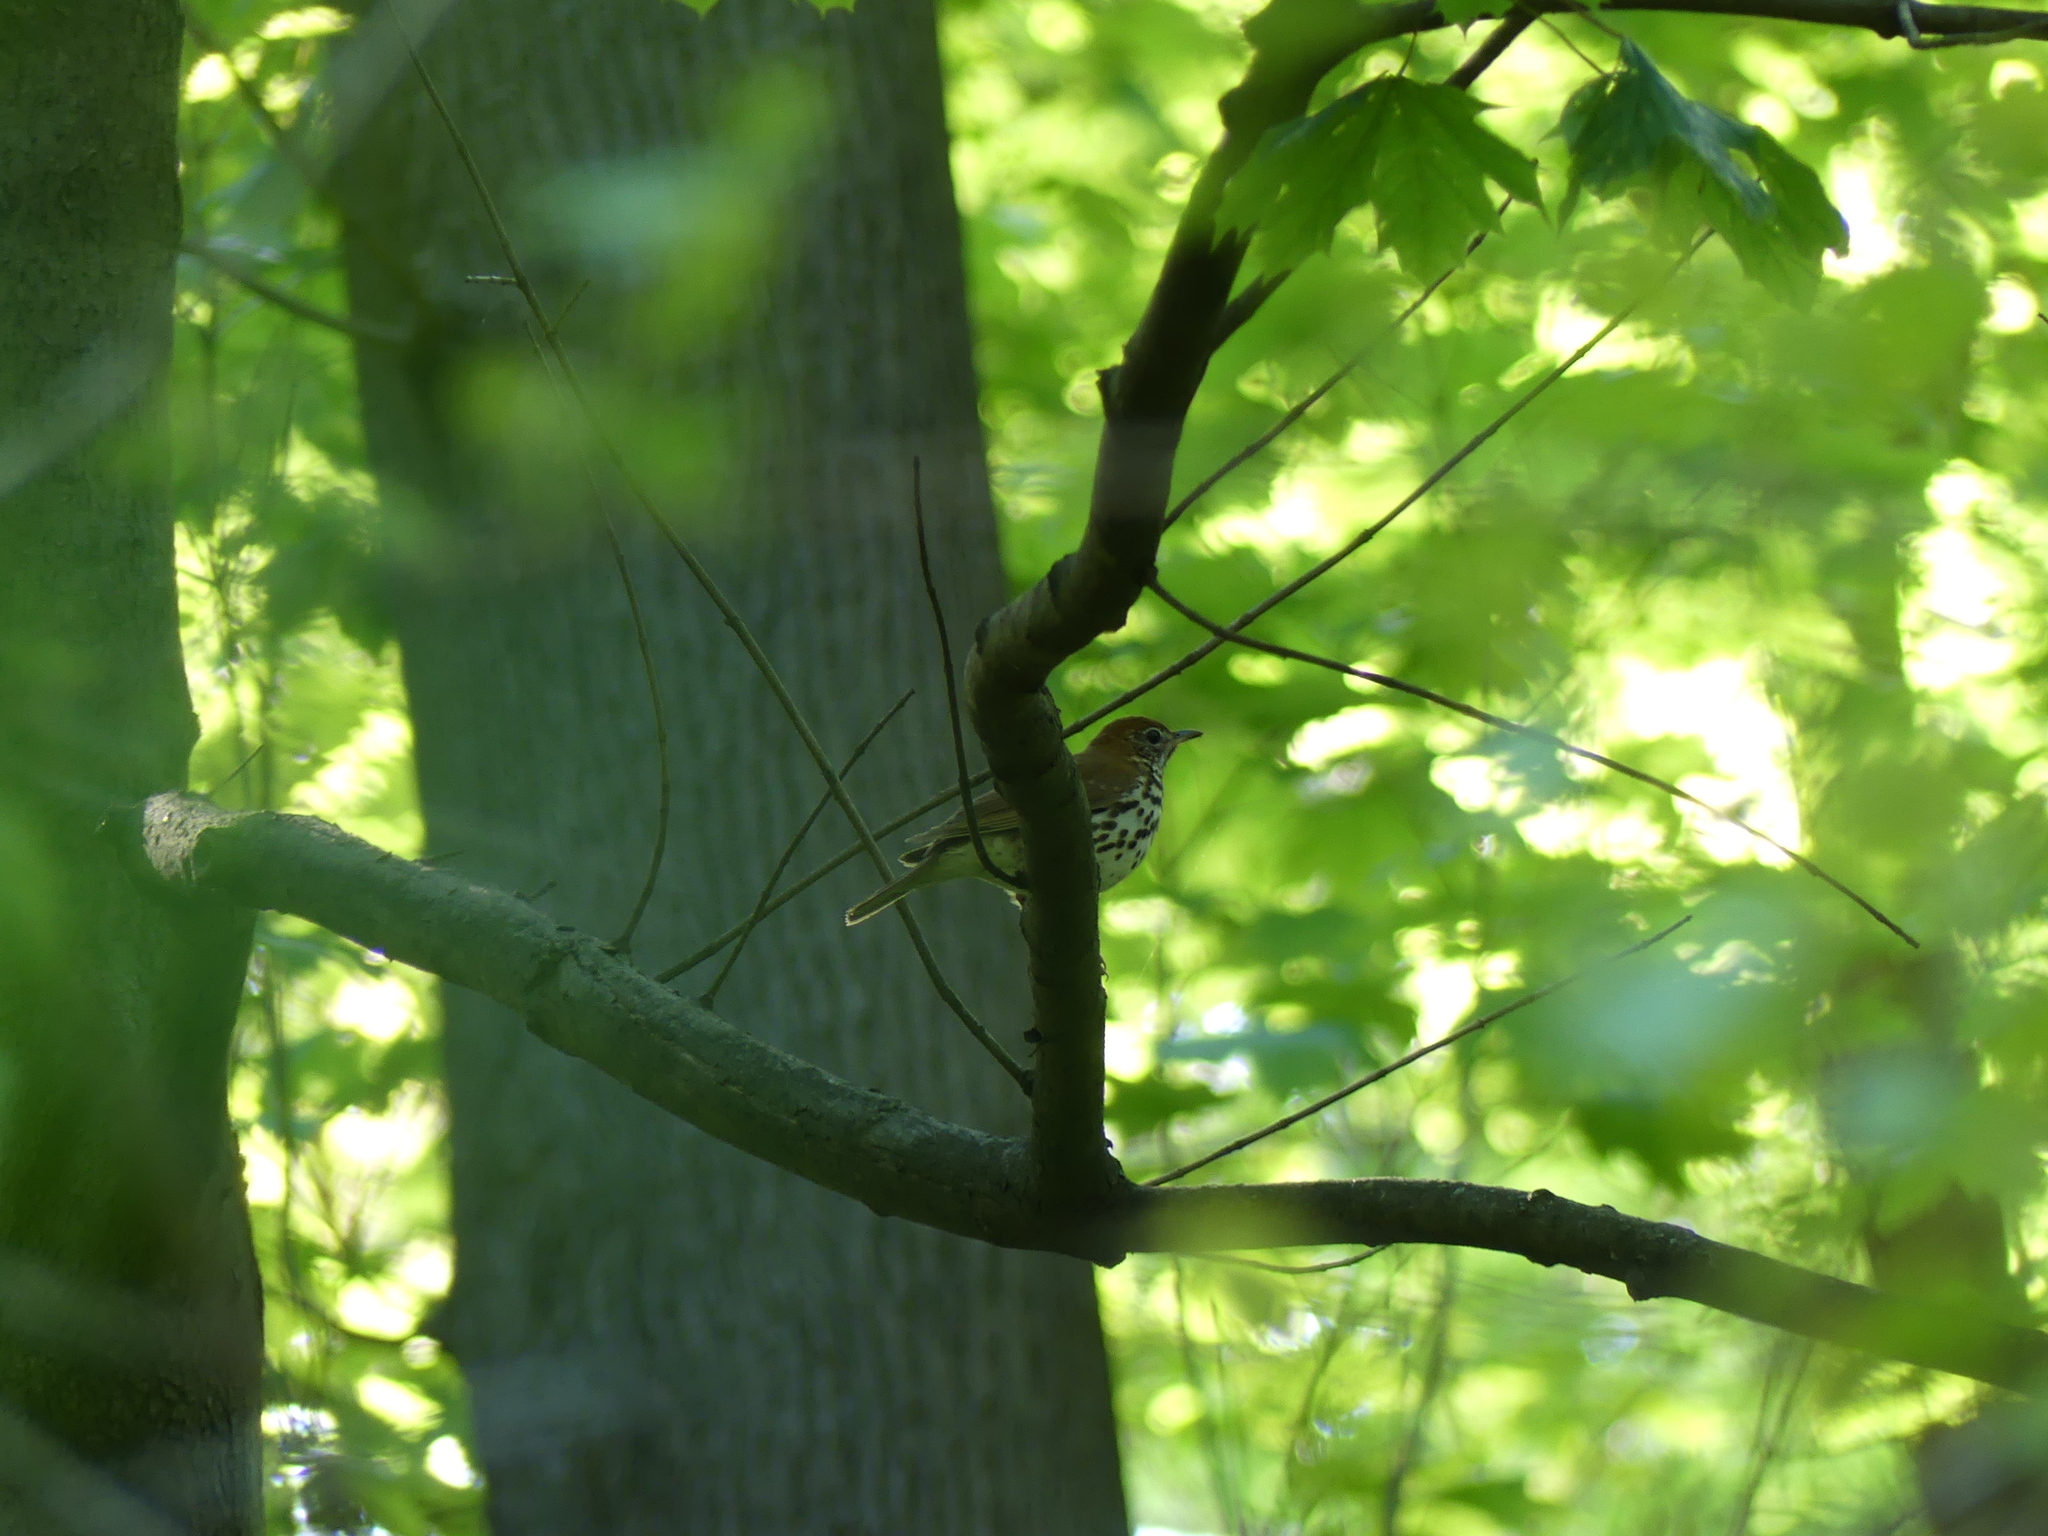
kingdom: Animalia
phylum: Chordata
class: Aves
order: Passeriformes
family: Turdidae
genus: Hylocichla
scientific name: Hylocichla mustelina
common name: Wood thrush
